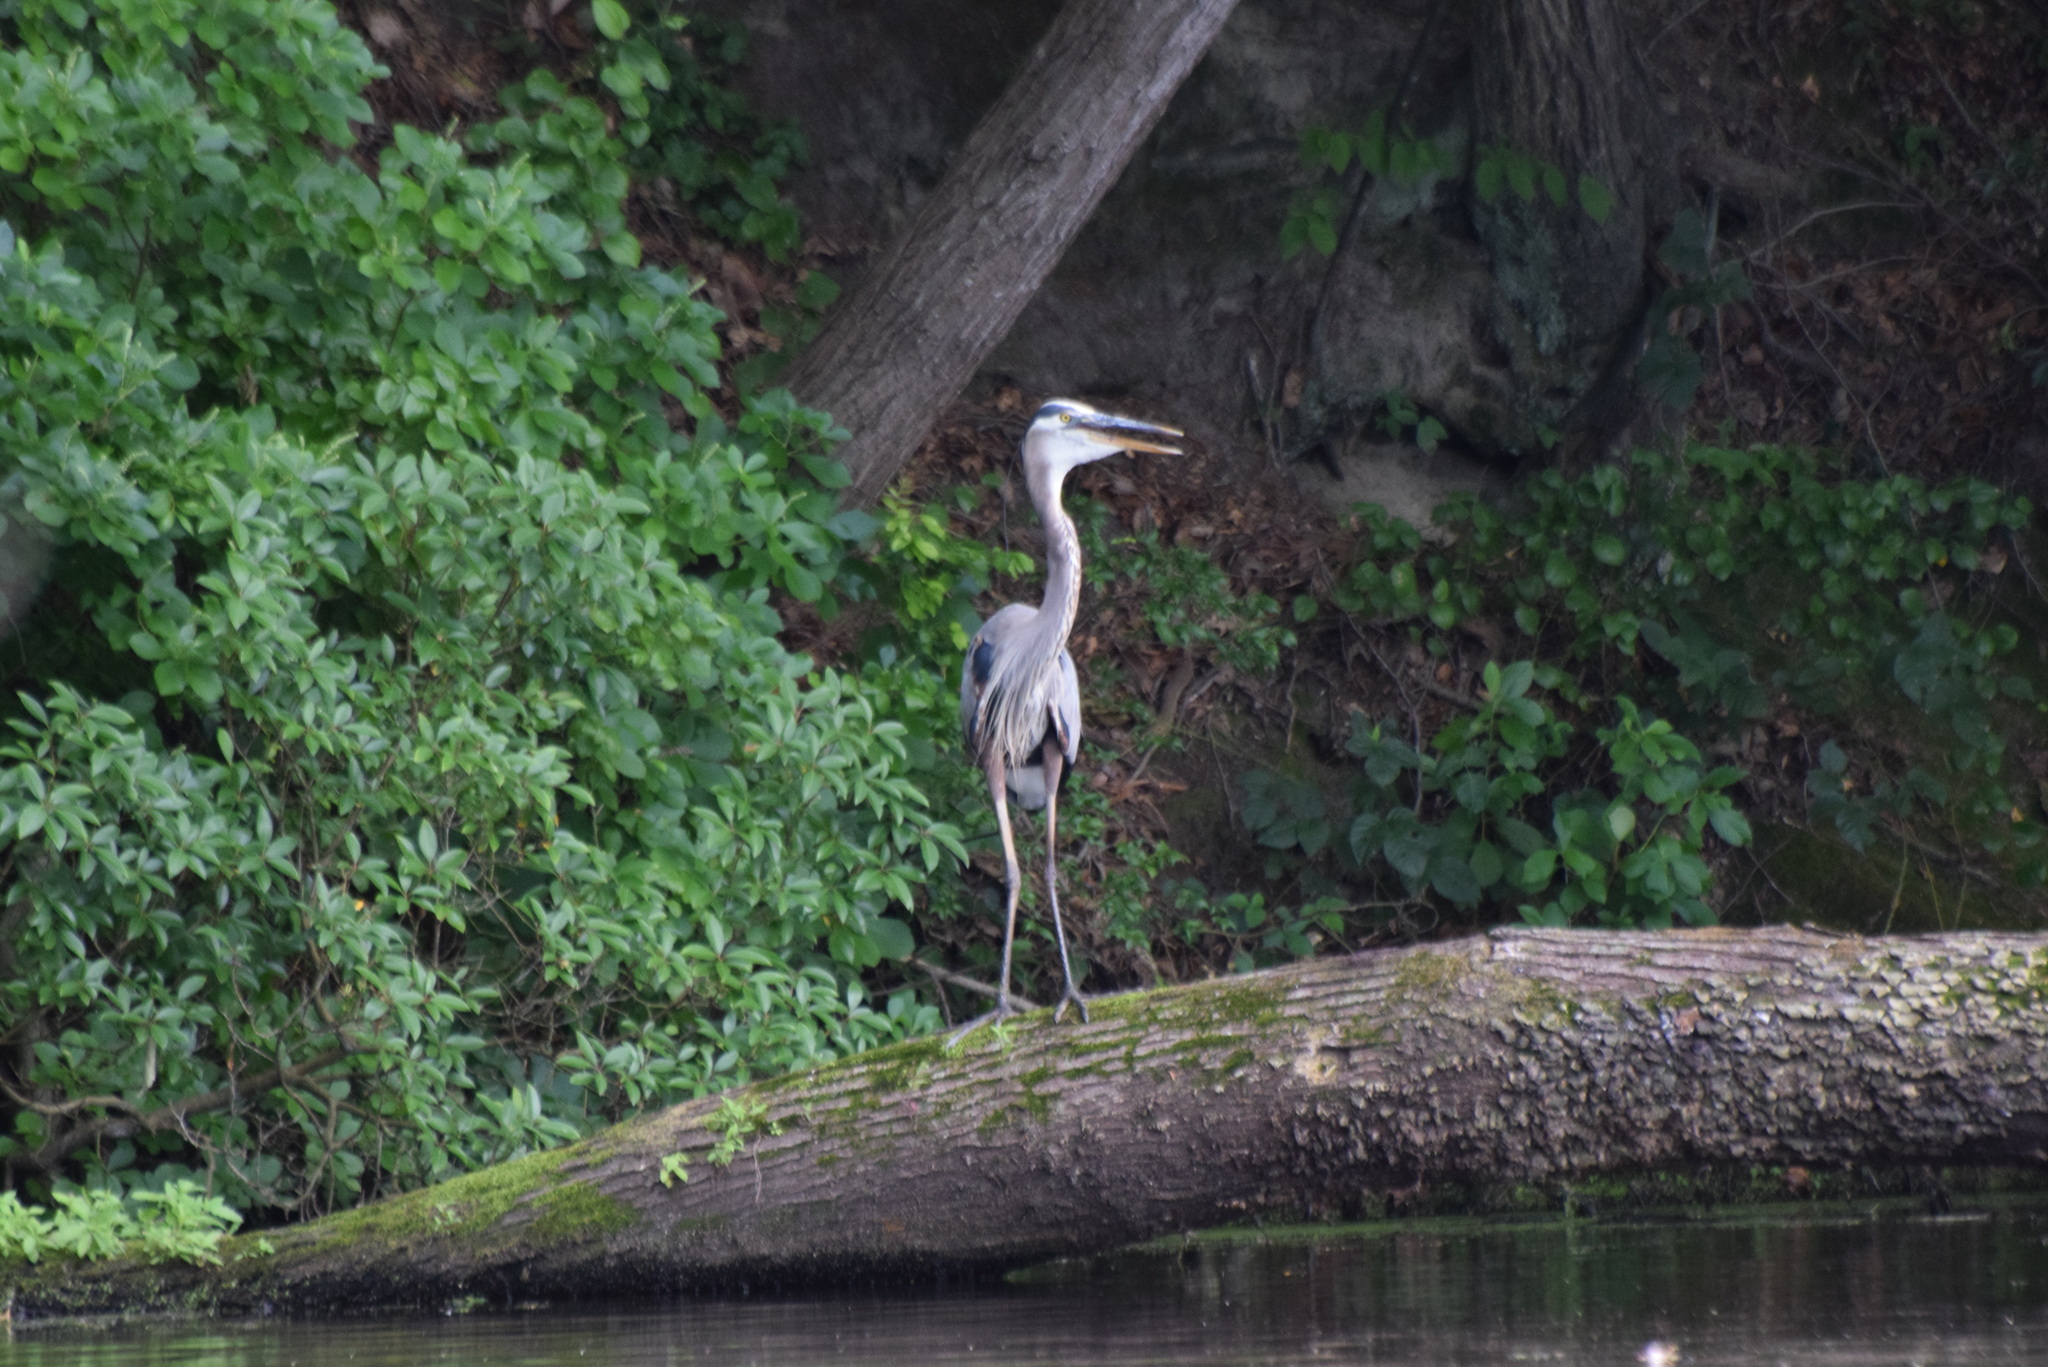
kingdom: Animalia
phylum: Chordata
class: Aves
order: Pelecaniformes
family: Ardeidae
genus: Ardea
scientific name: Ardea herodias
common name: Great blue heron
